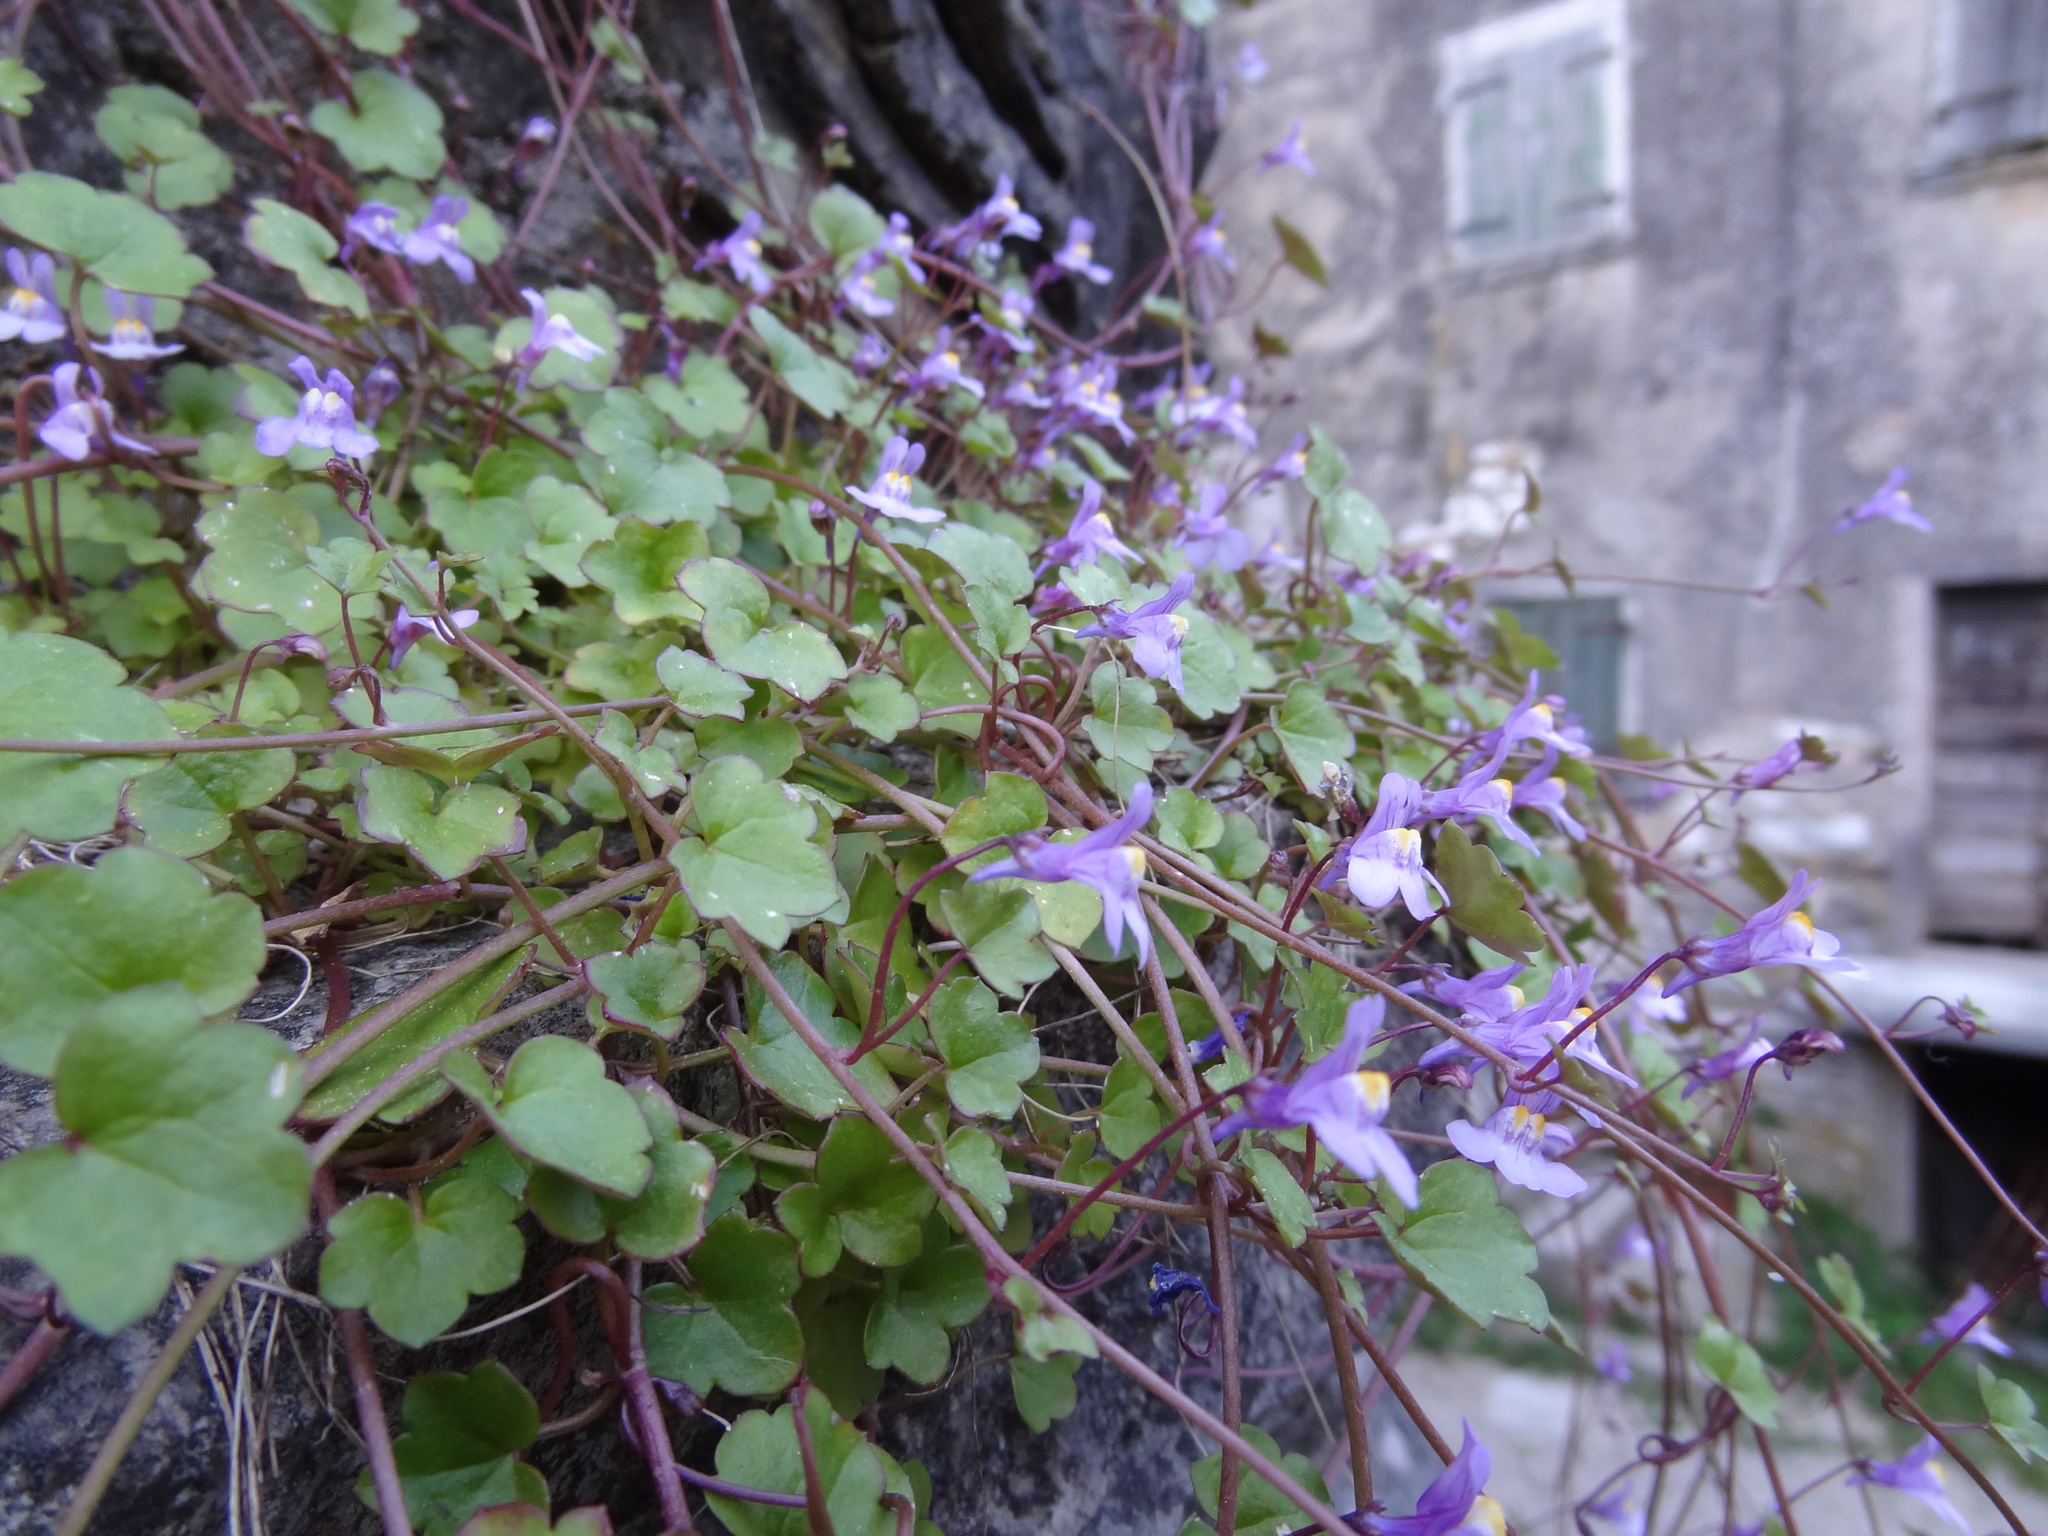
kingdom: Plantae
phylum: Tracheophyta
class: Magnoliopsida
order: Lamiales
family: Plantaginaceae
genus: Cymbalaria
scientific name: Cymbalaria muralis
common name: Ivy-leaved toadflax
